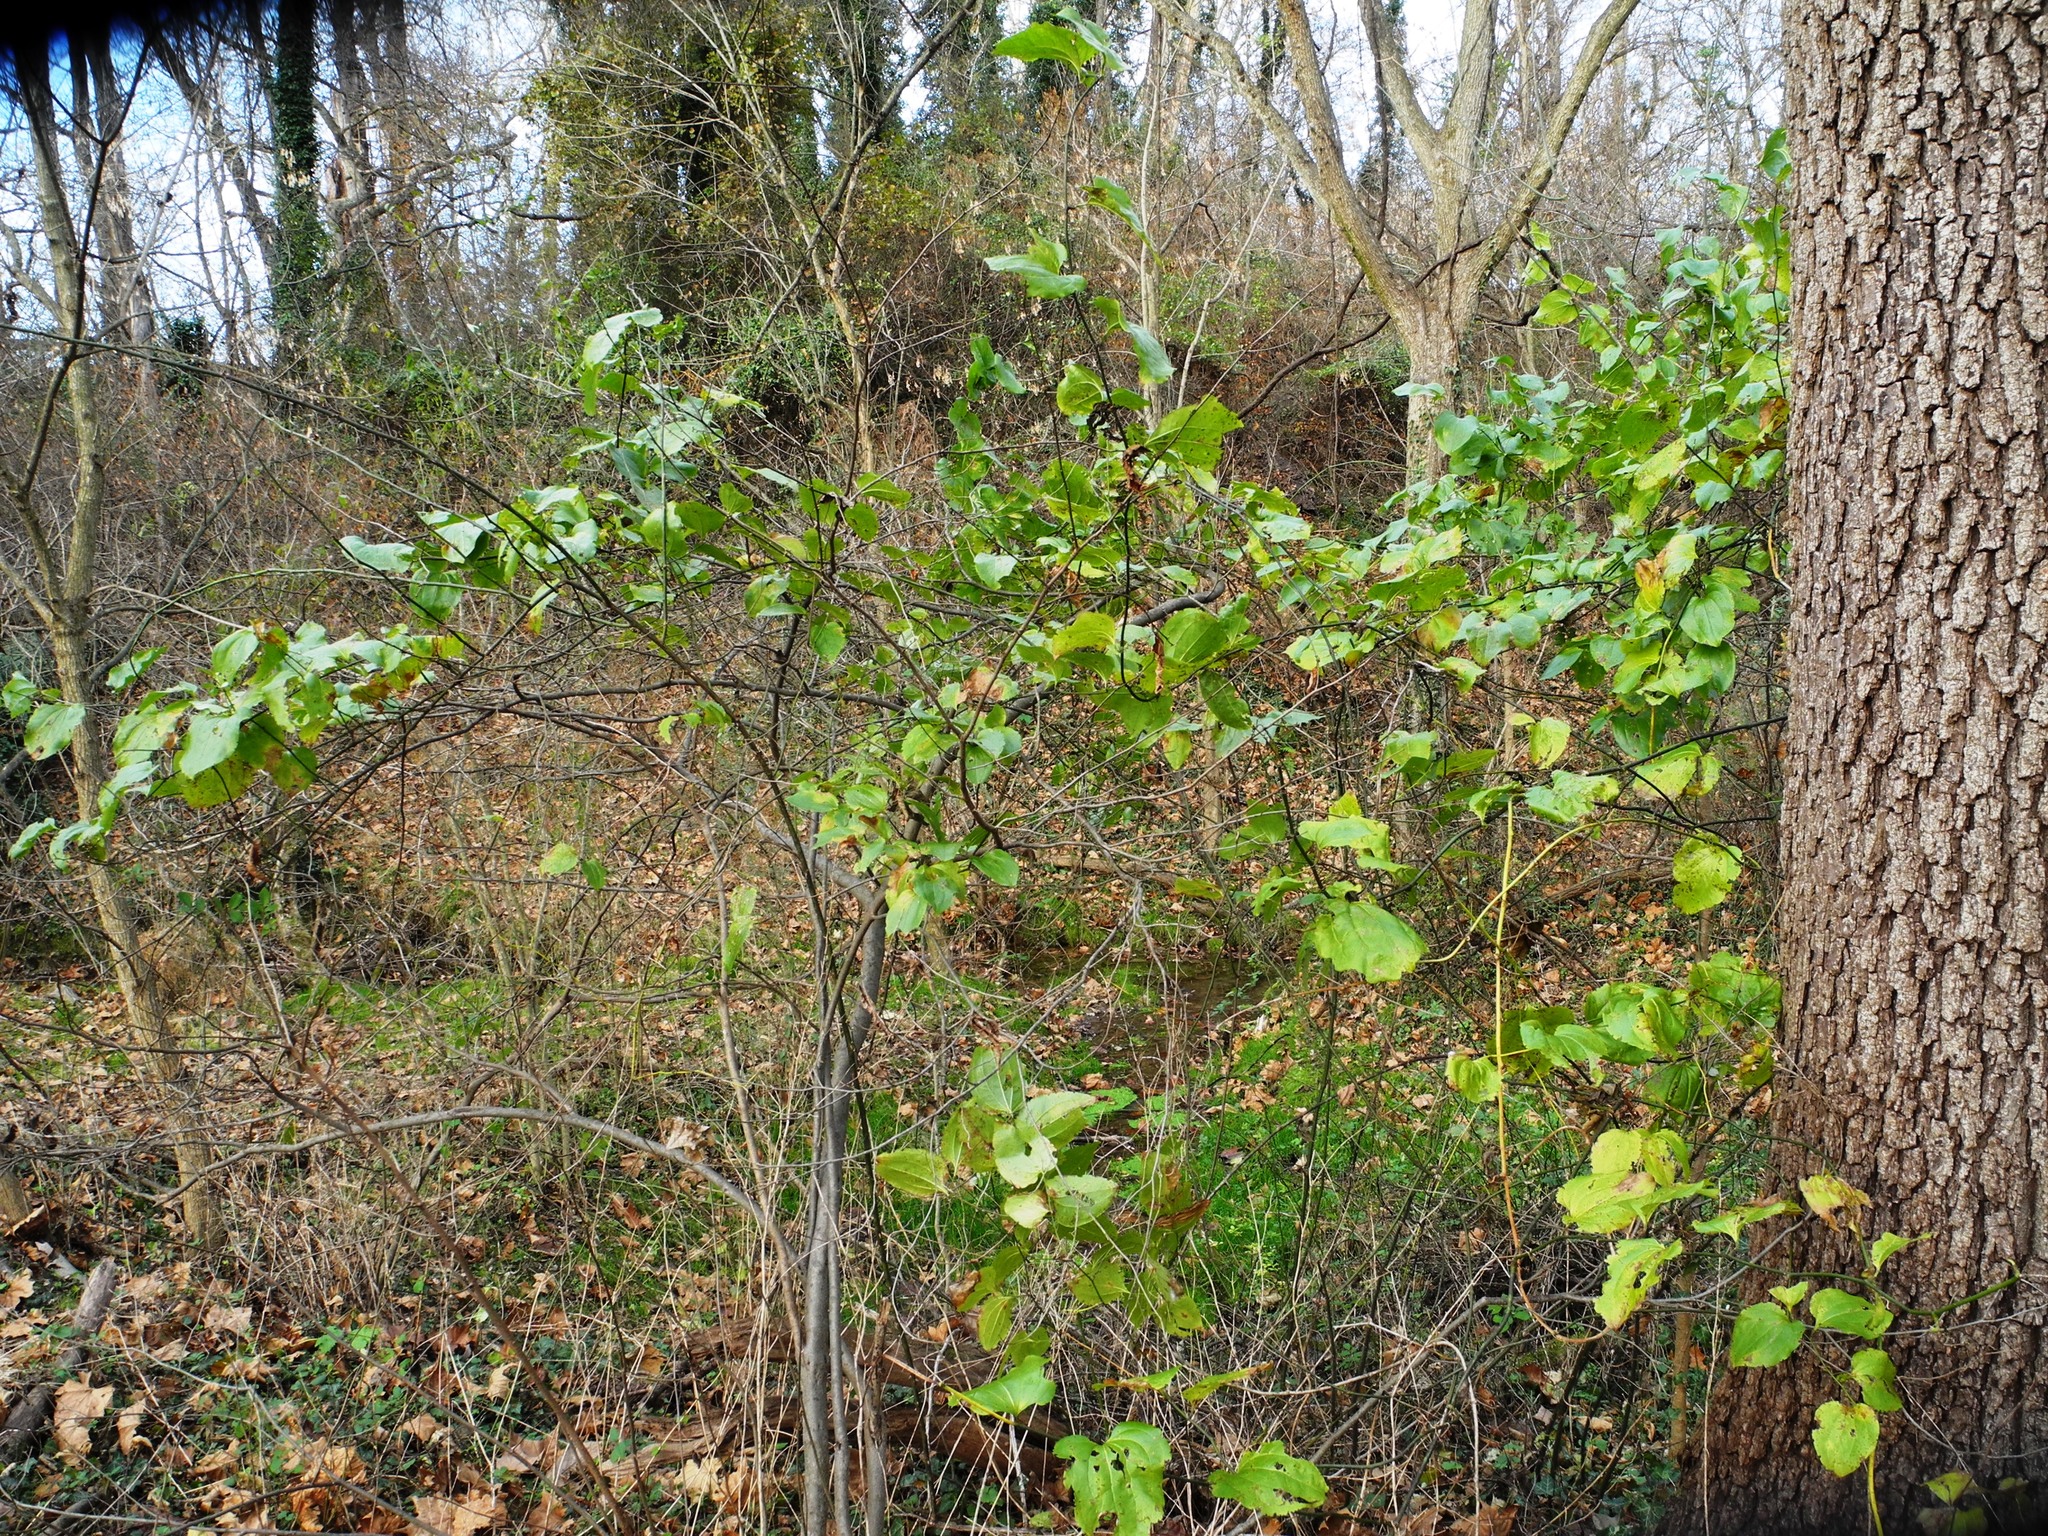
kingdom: Plantae
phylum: Tracheophyta
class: Liliopsida
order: Liliales
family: Smilacaceae
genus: Smilax
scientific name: Smilax rotundifolia
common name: Bullbriar
